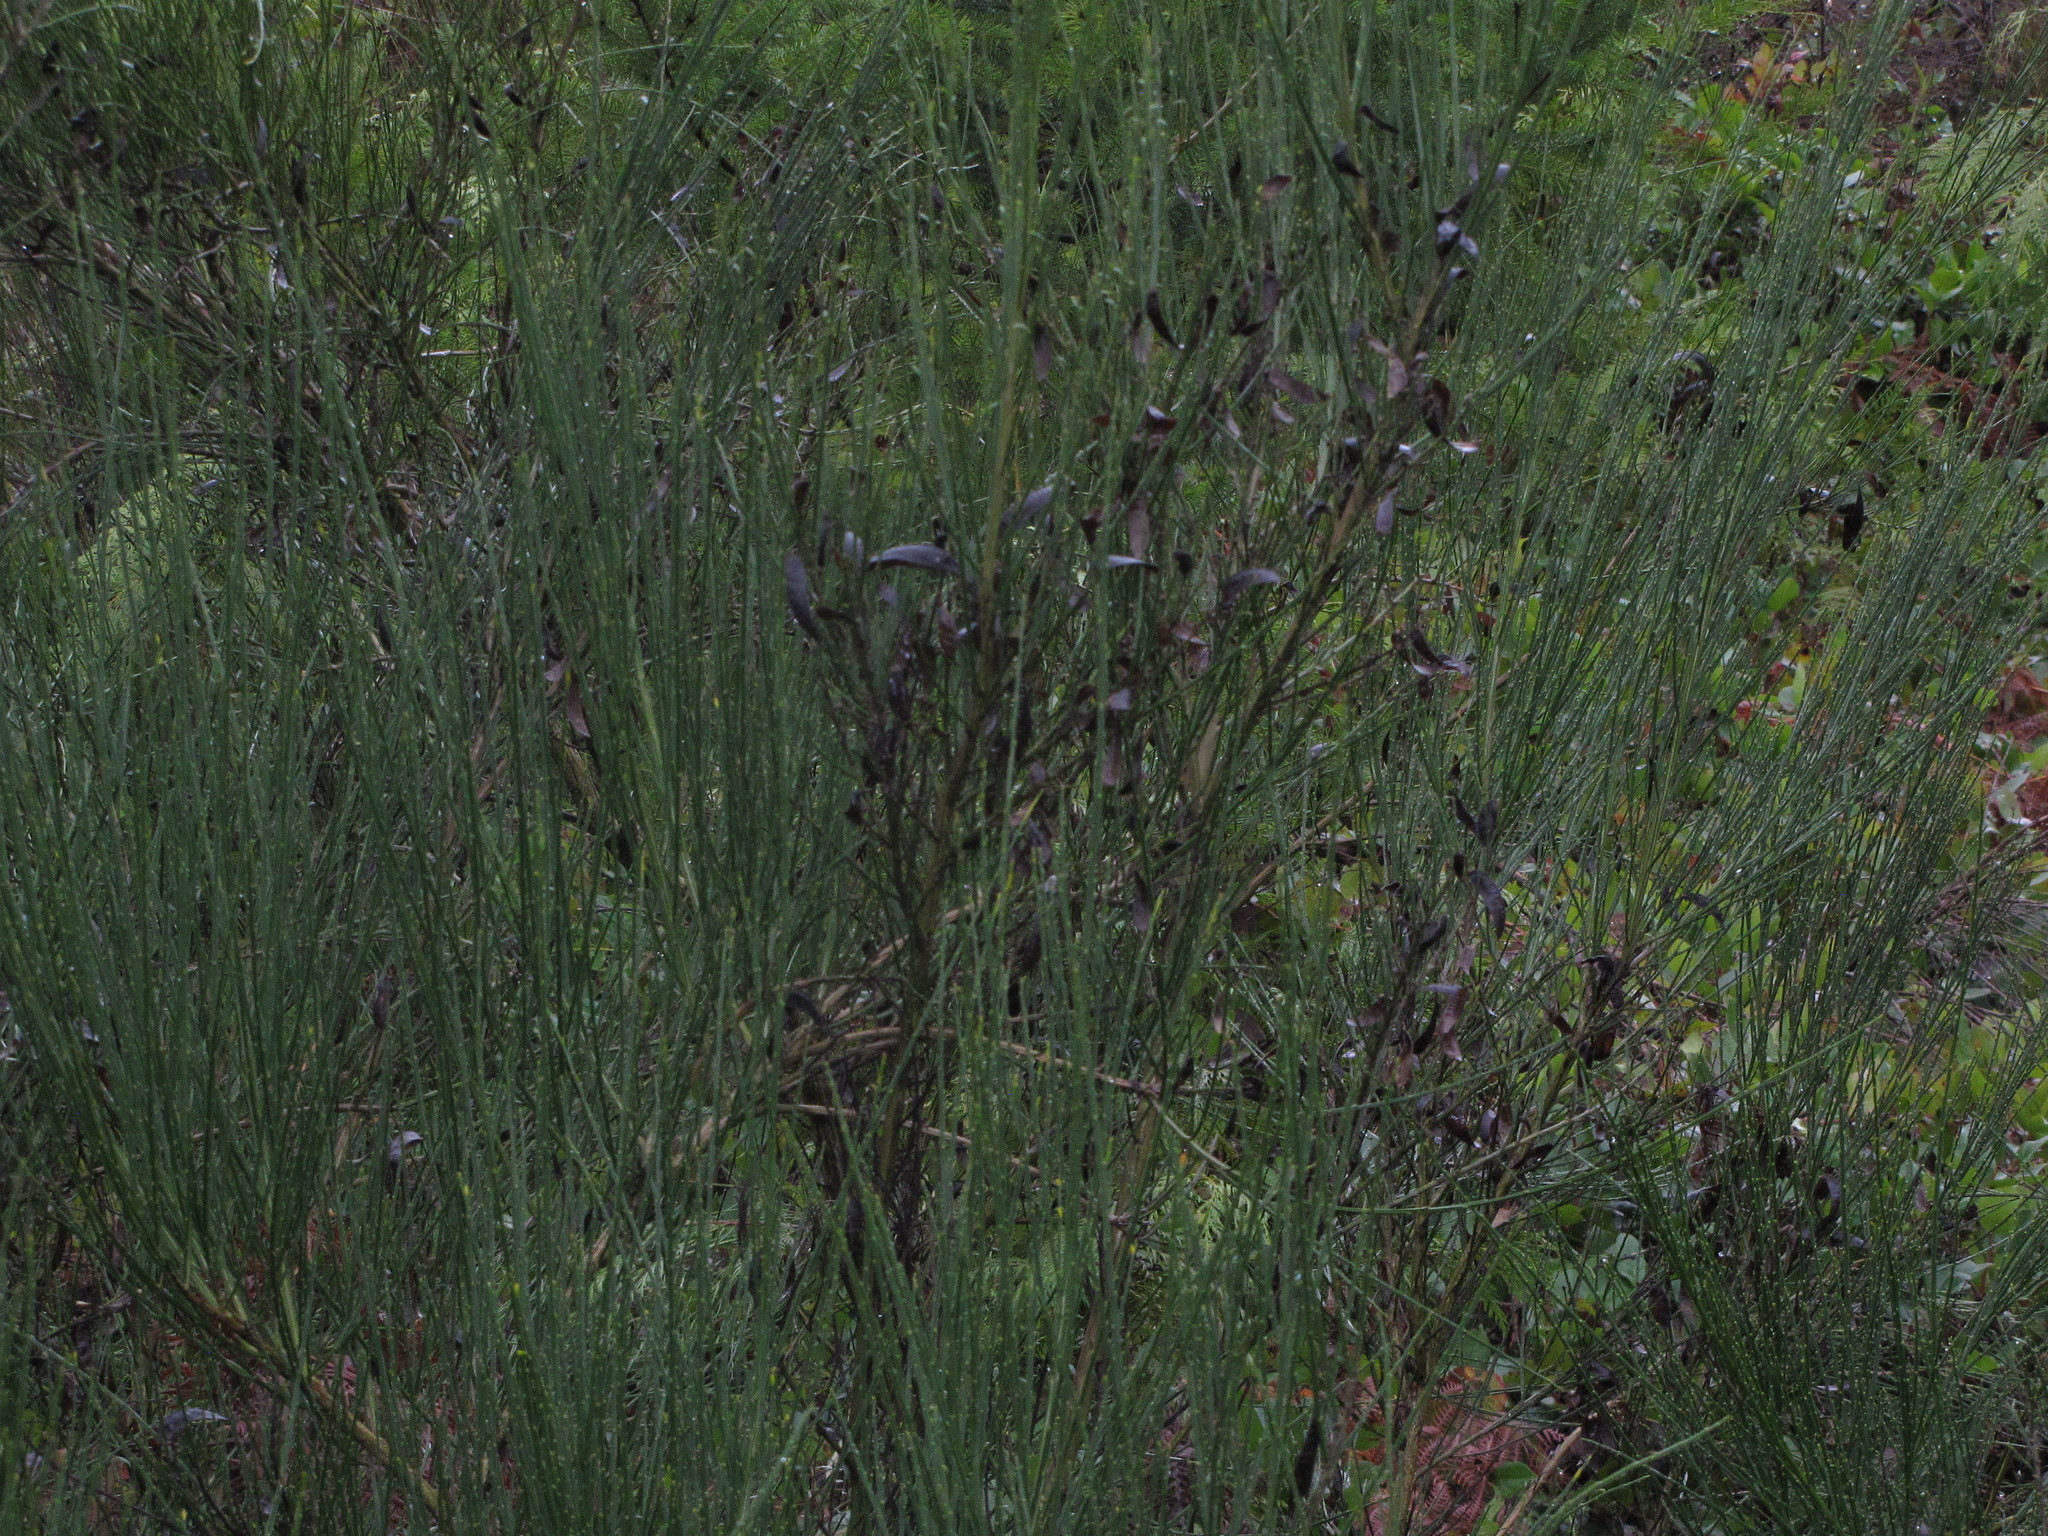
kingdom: Plantae
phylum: Tracheophyta
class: Magnoliopsida
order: Fabales
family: Fabaceae
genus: Cytisus
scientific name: Cytisus scoparius
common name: Scotch broom
